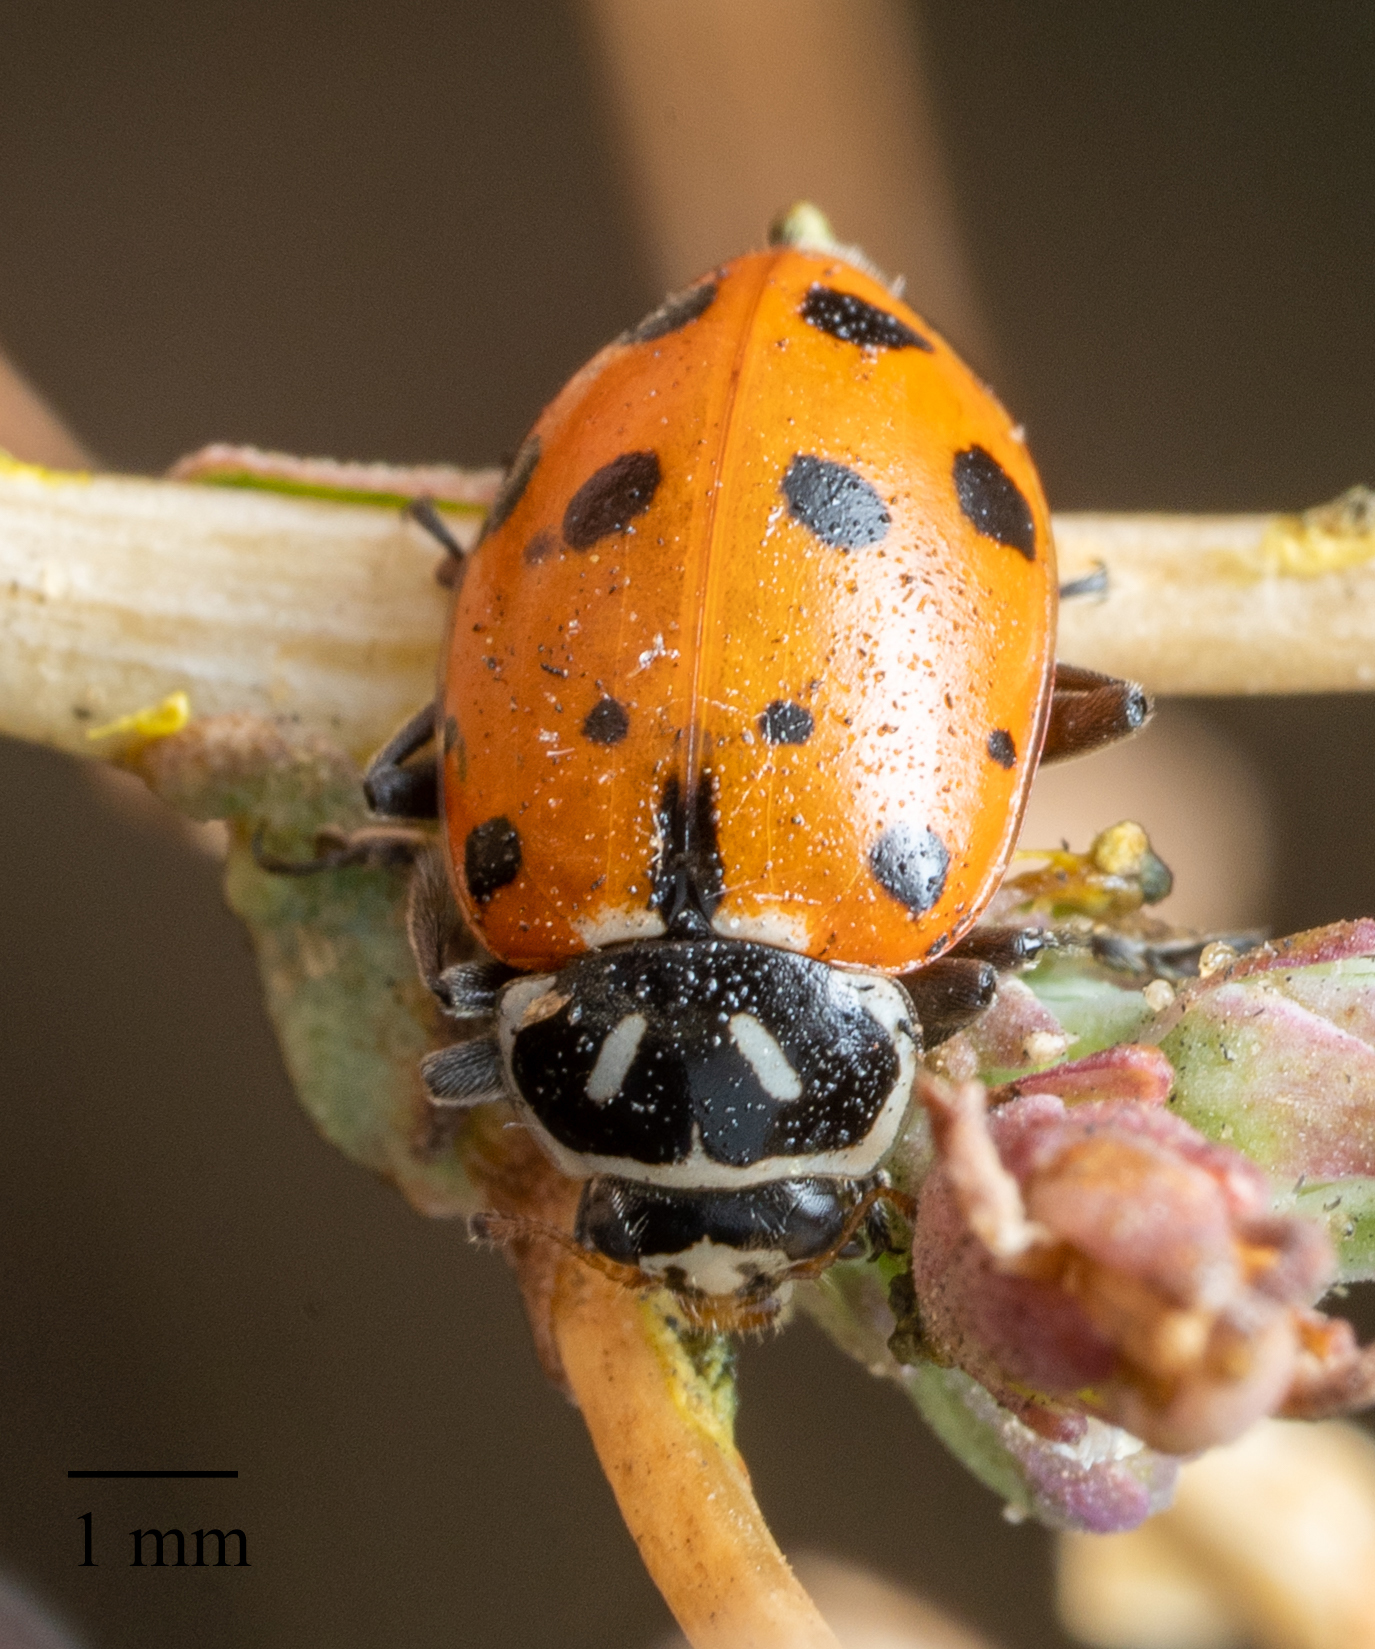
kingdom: Animalia
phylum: Arthropoda
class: Insecta
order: Coleoptera
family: Coccinellidae
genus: Hippodamia
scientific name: Hippodamia convergens
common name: Convergent lady beetle
